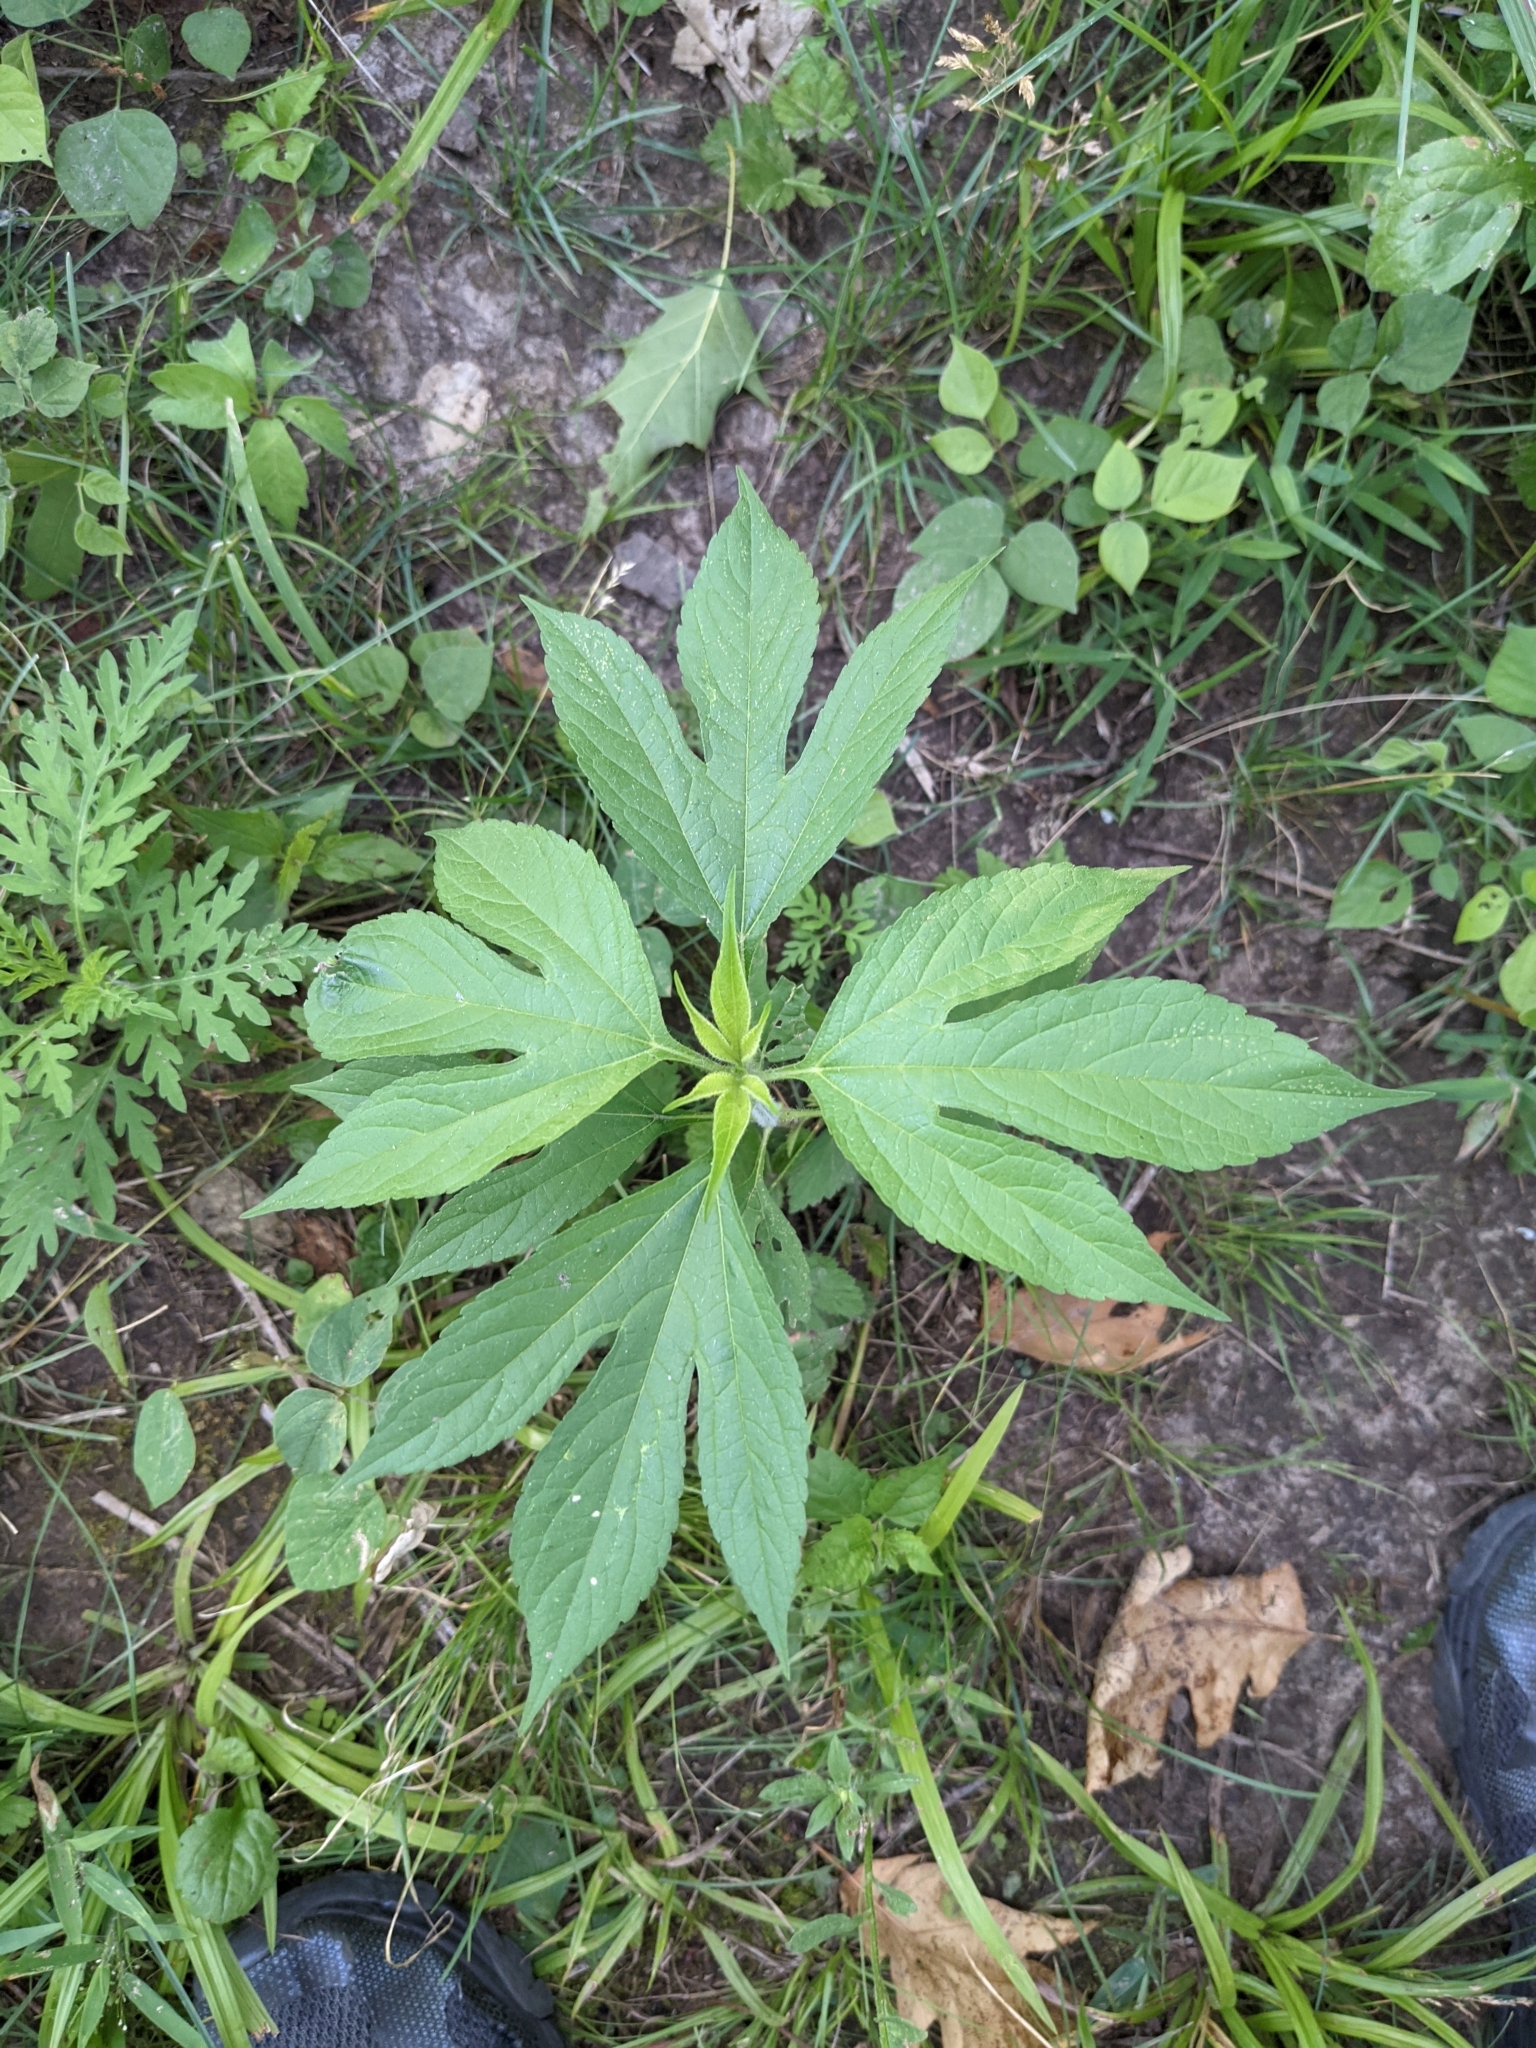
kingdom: Plantae
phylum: Tracheophyta
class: Magnoliopsida
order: Asterales
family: Asteraceae
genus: Ambrosia
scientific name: Ambrosia trifida
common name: Giant ragweed
